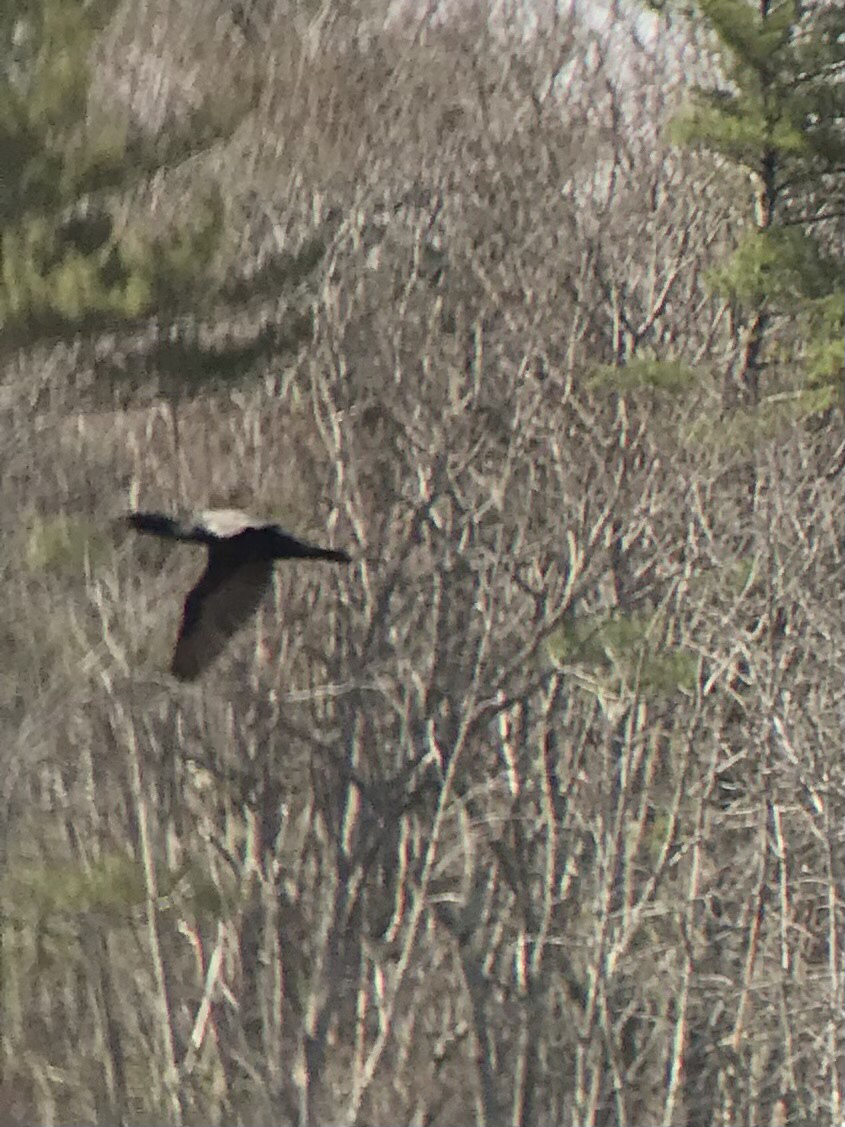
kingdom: Animalia
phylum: Chordata
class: Aves
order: Suliformes
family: Phalacrocoracidae
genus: Phalacrocorax
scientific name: Phalacrocorax auritus
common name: Double-crested cormorant
